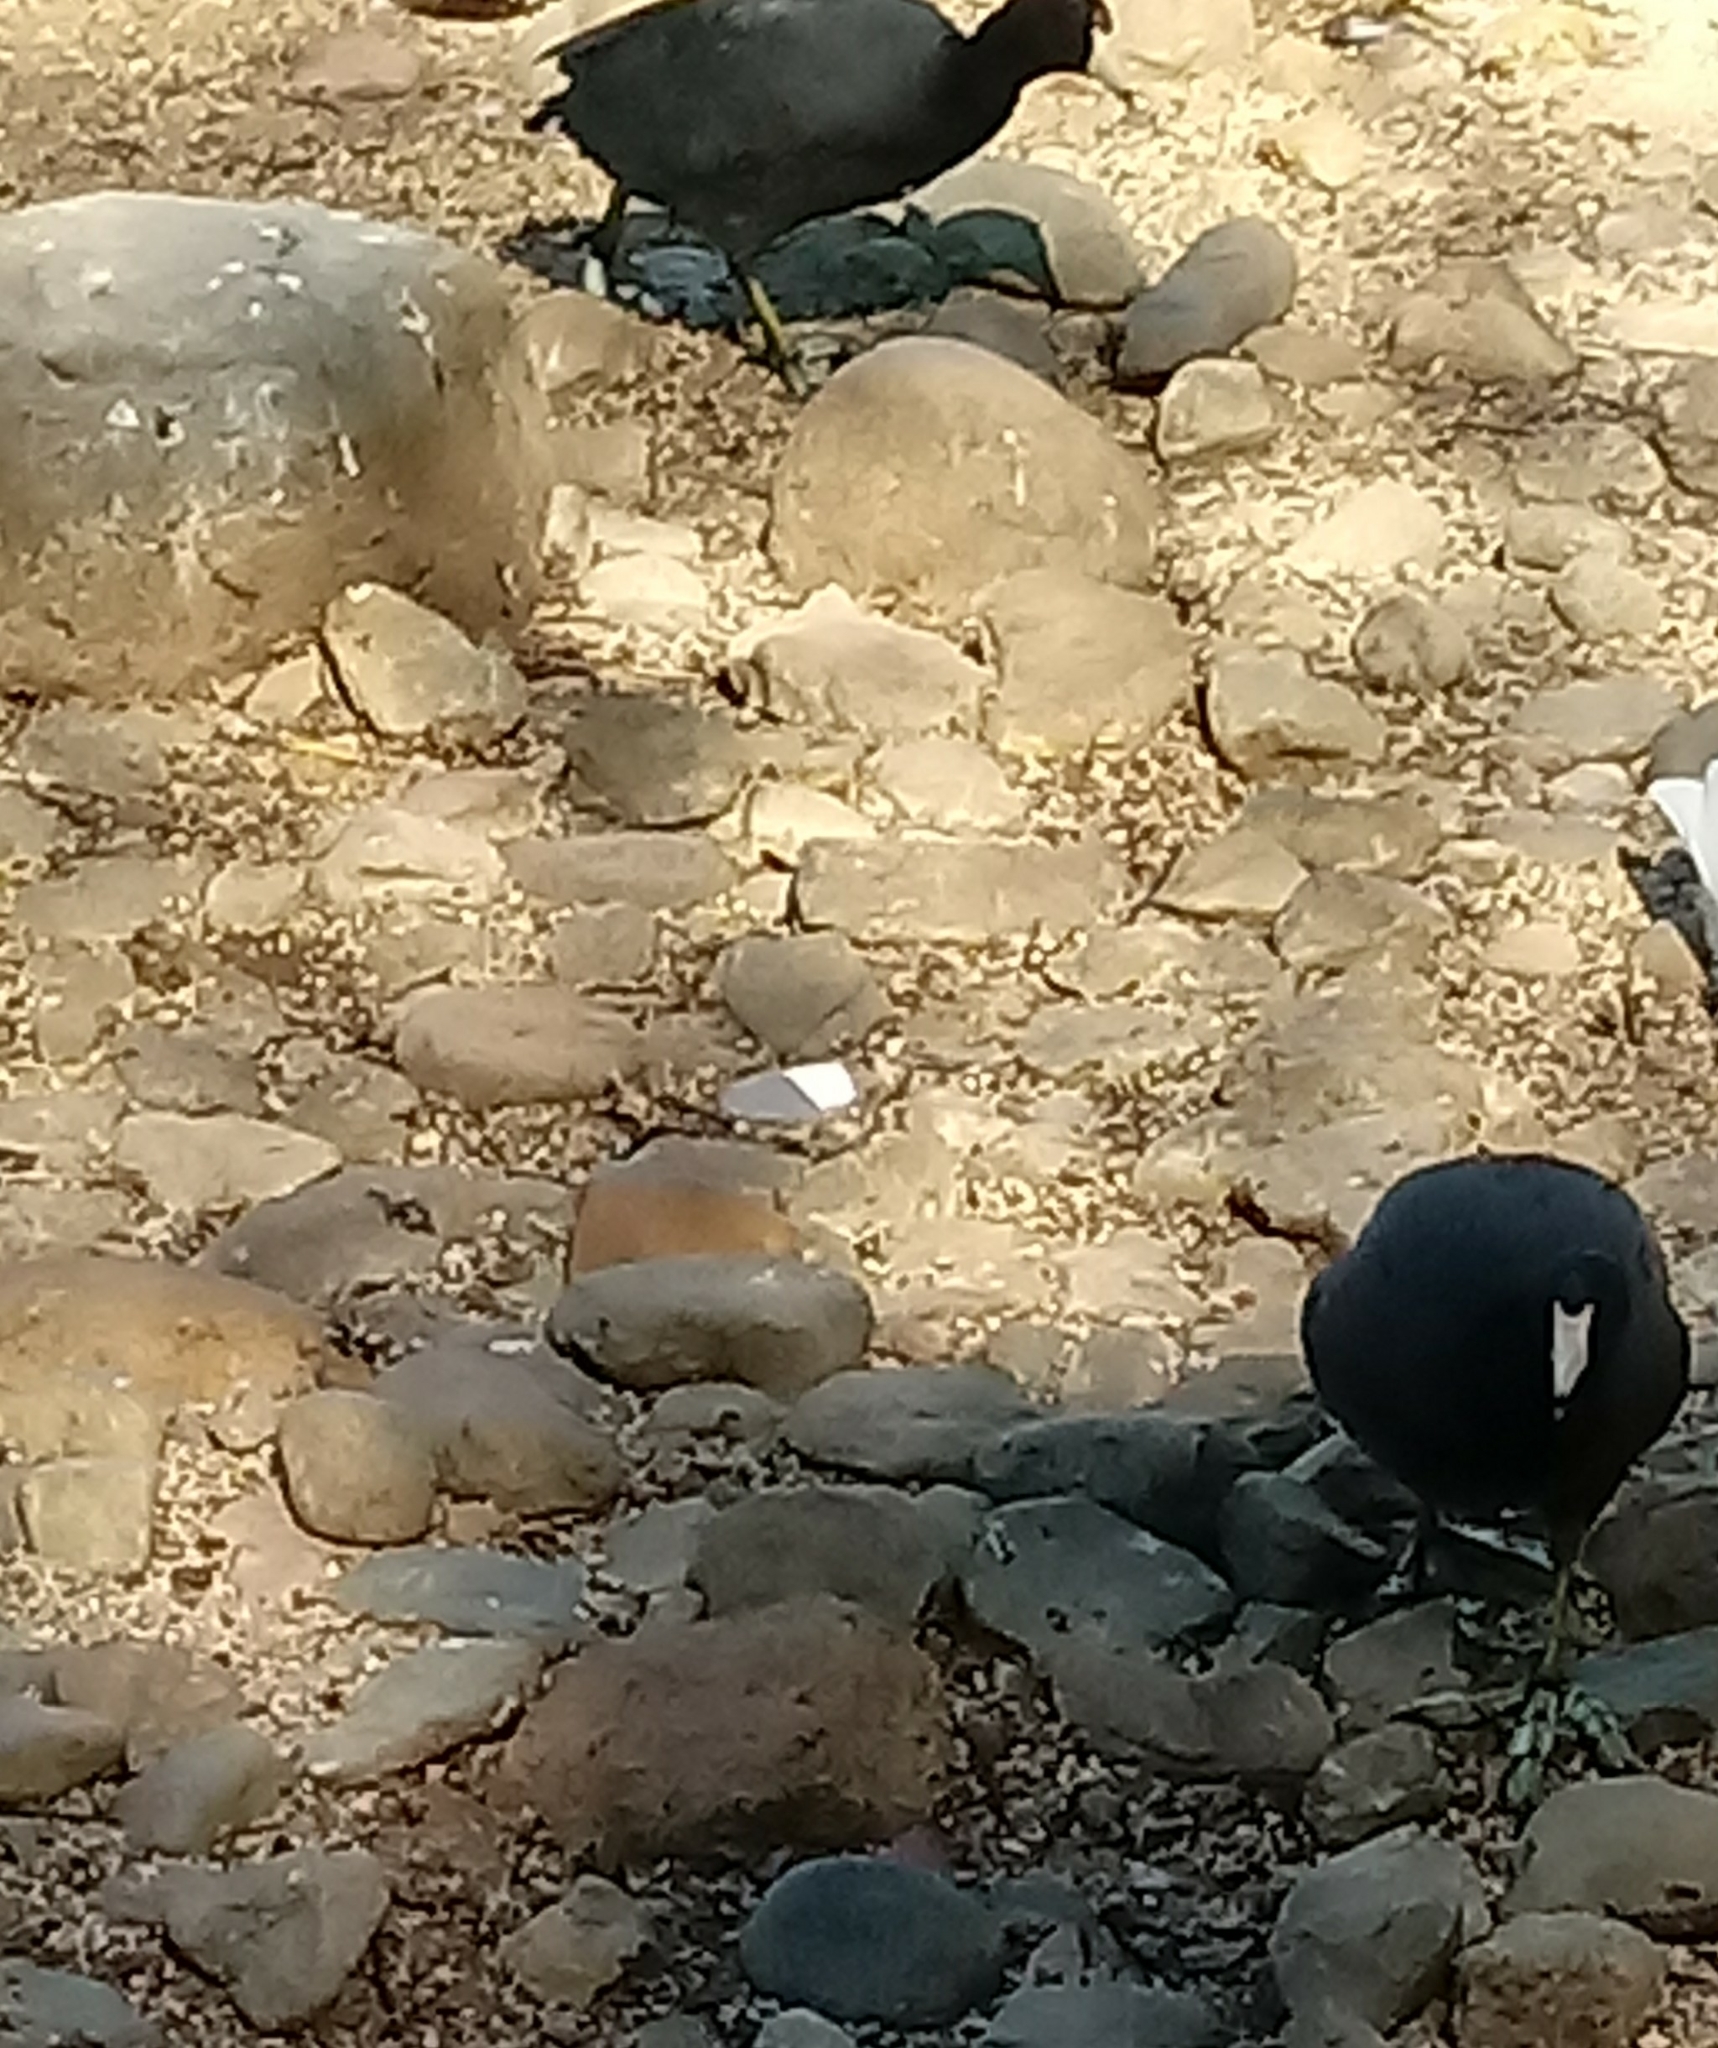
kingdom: Animalia
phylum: Chordata
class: Aves
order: Gruiformes
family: Rallidae
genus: Fulica
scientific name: Fulica americana
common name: American coot
